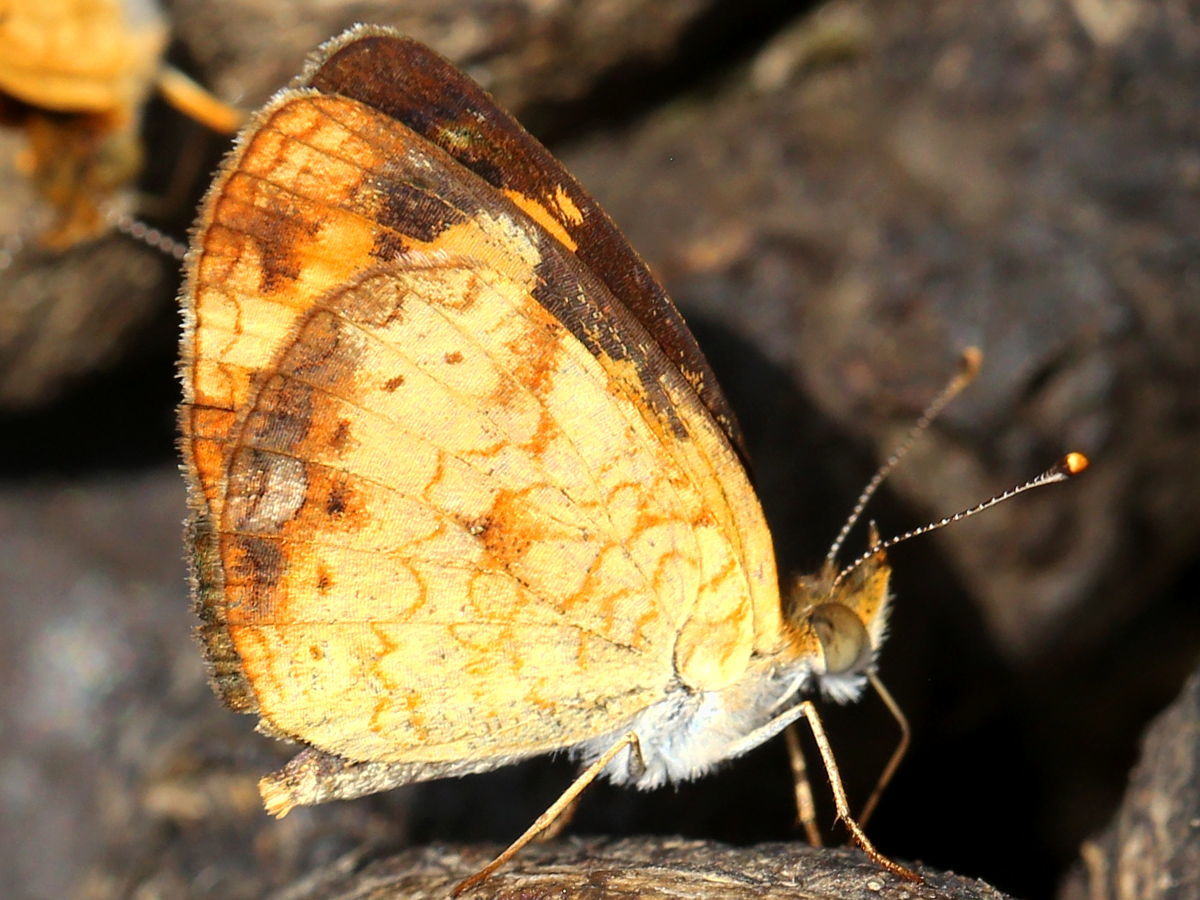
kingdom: Animalia
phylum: Arthropoda
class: Insecta
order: Lepidoptera
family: Nymphalidae
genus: Phyciodes
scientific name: Phyciodes tharos
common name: Pearl crescent
